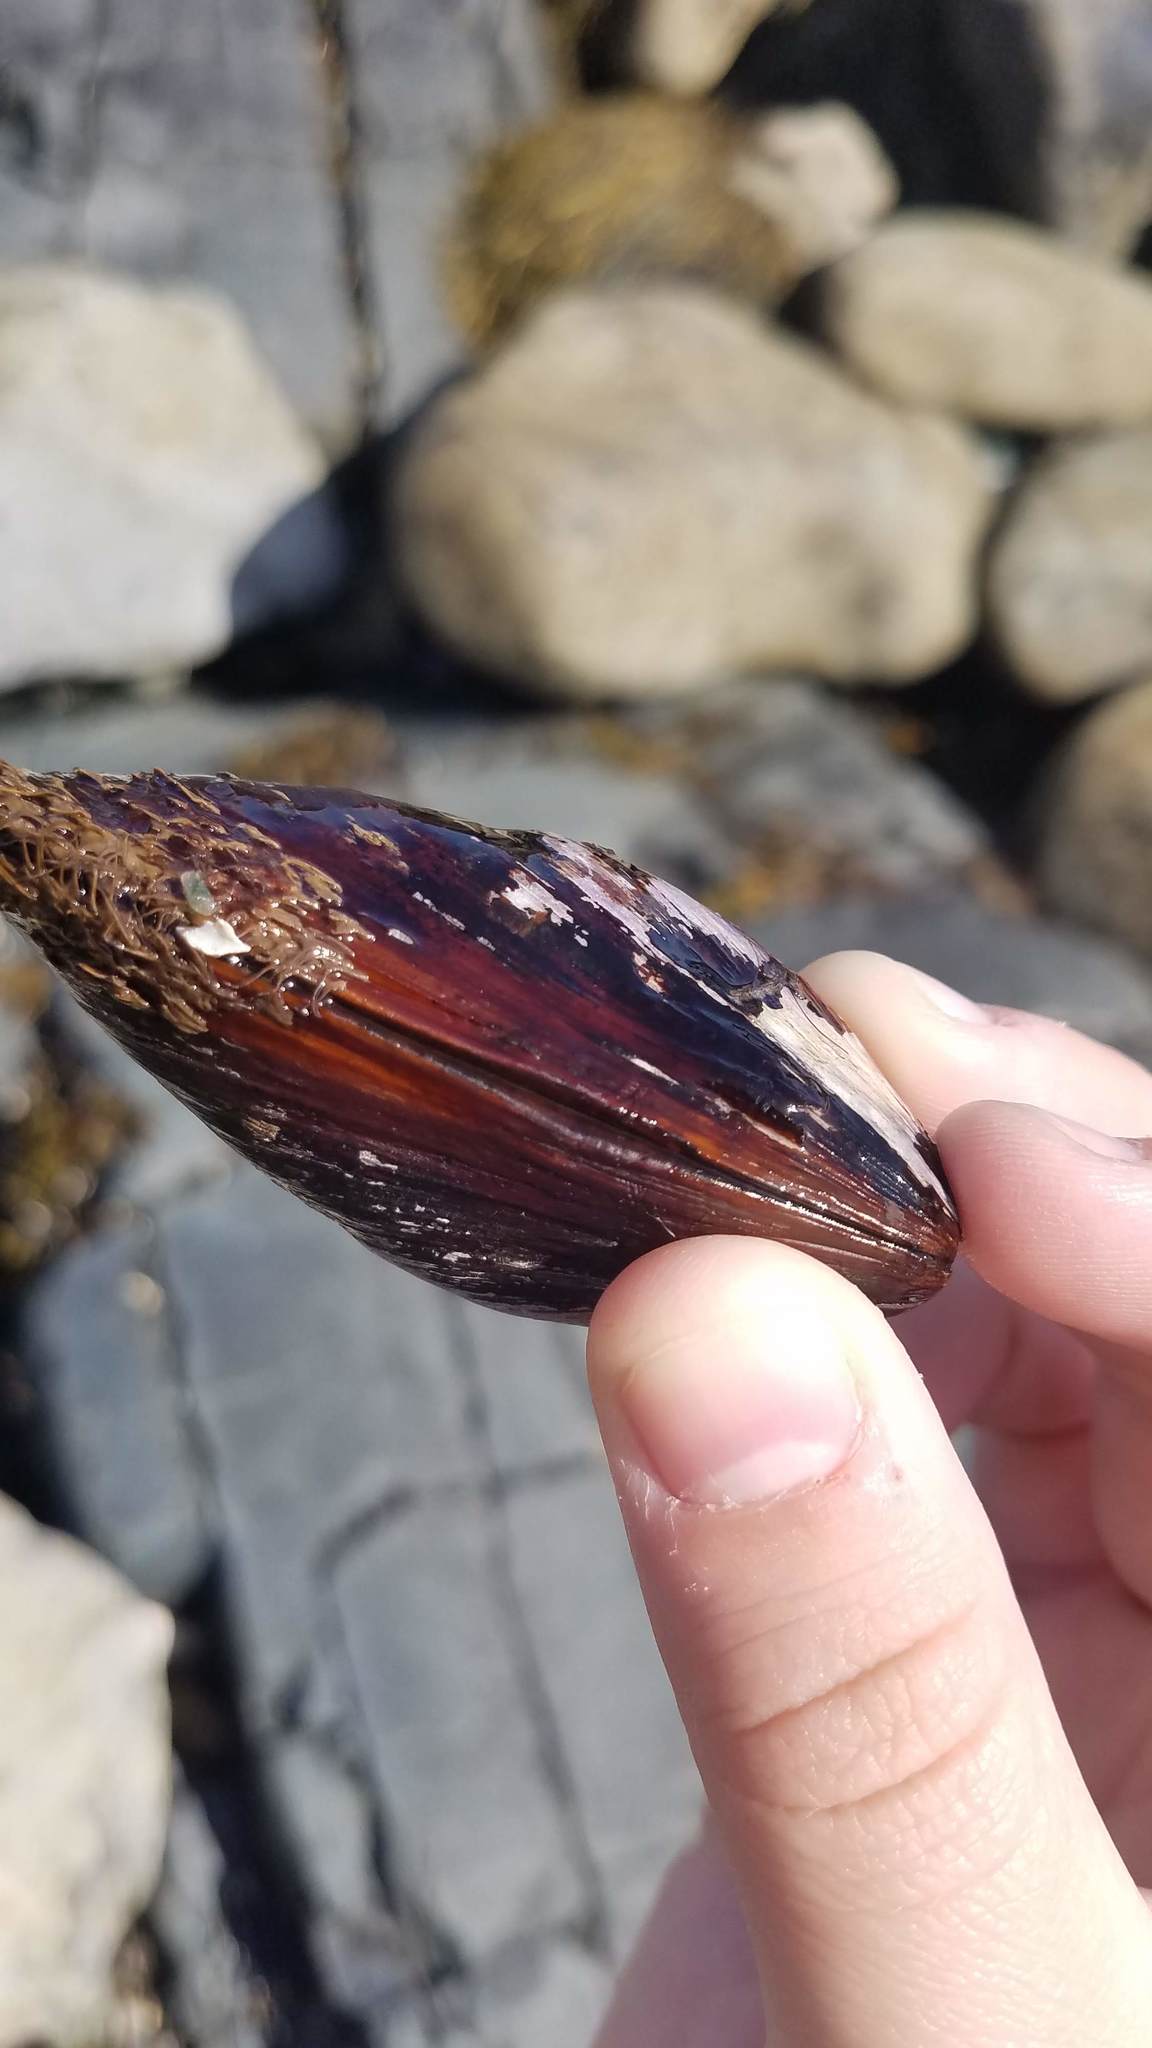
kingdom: Animalia
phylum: Mollusca
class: Bivalvia
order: Mytilida
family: Mytilidae
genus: Modiolus
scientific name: Modiolus modiolus
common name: Horse-mussel
